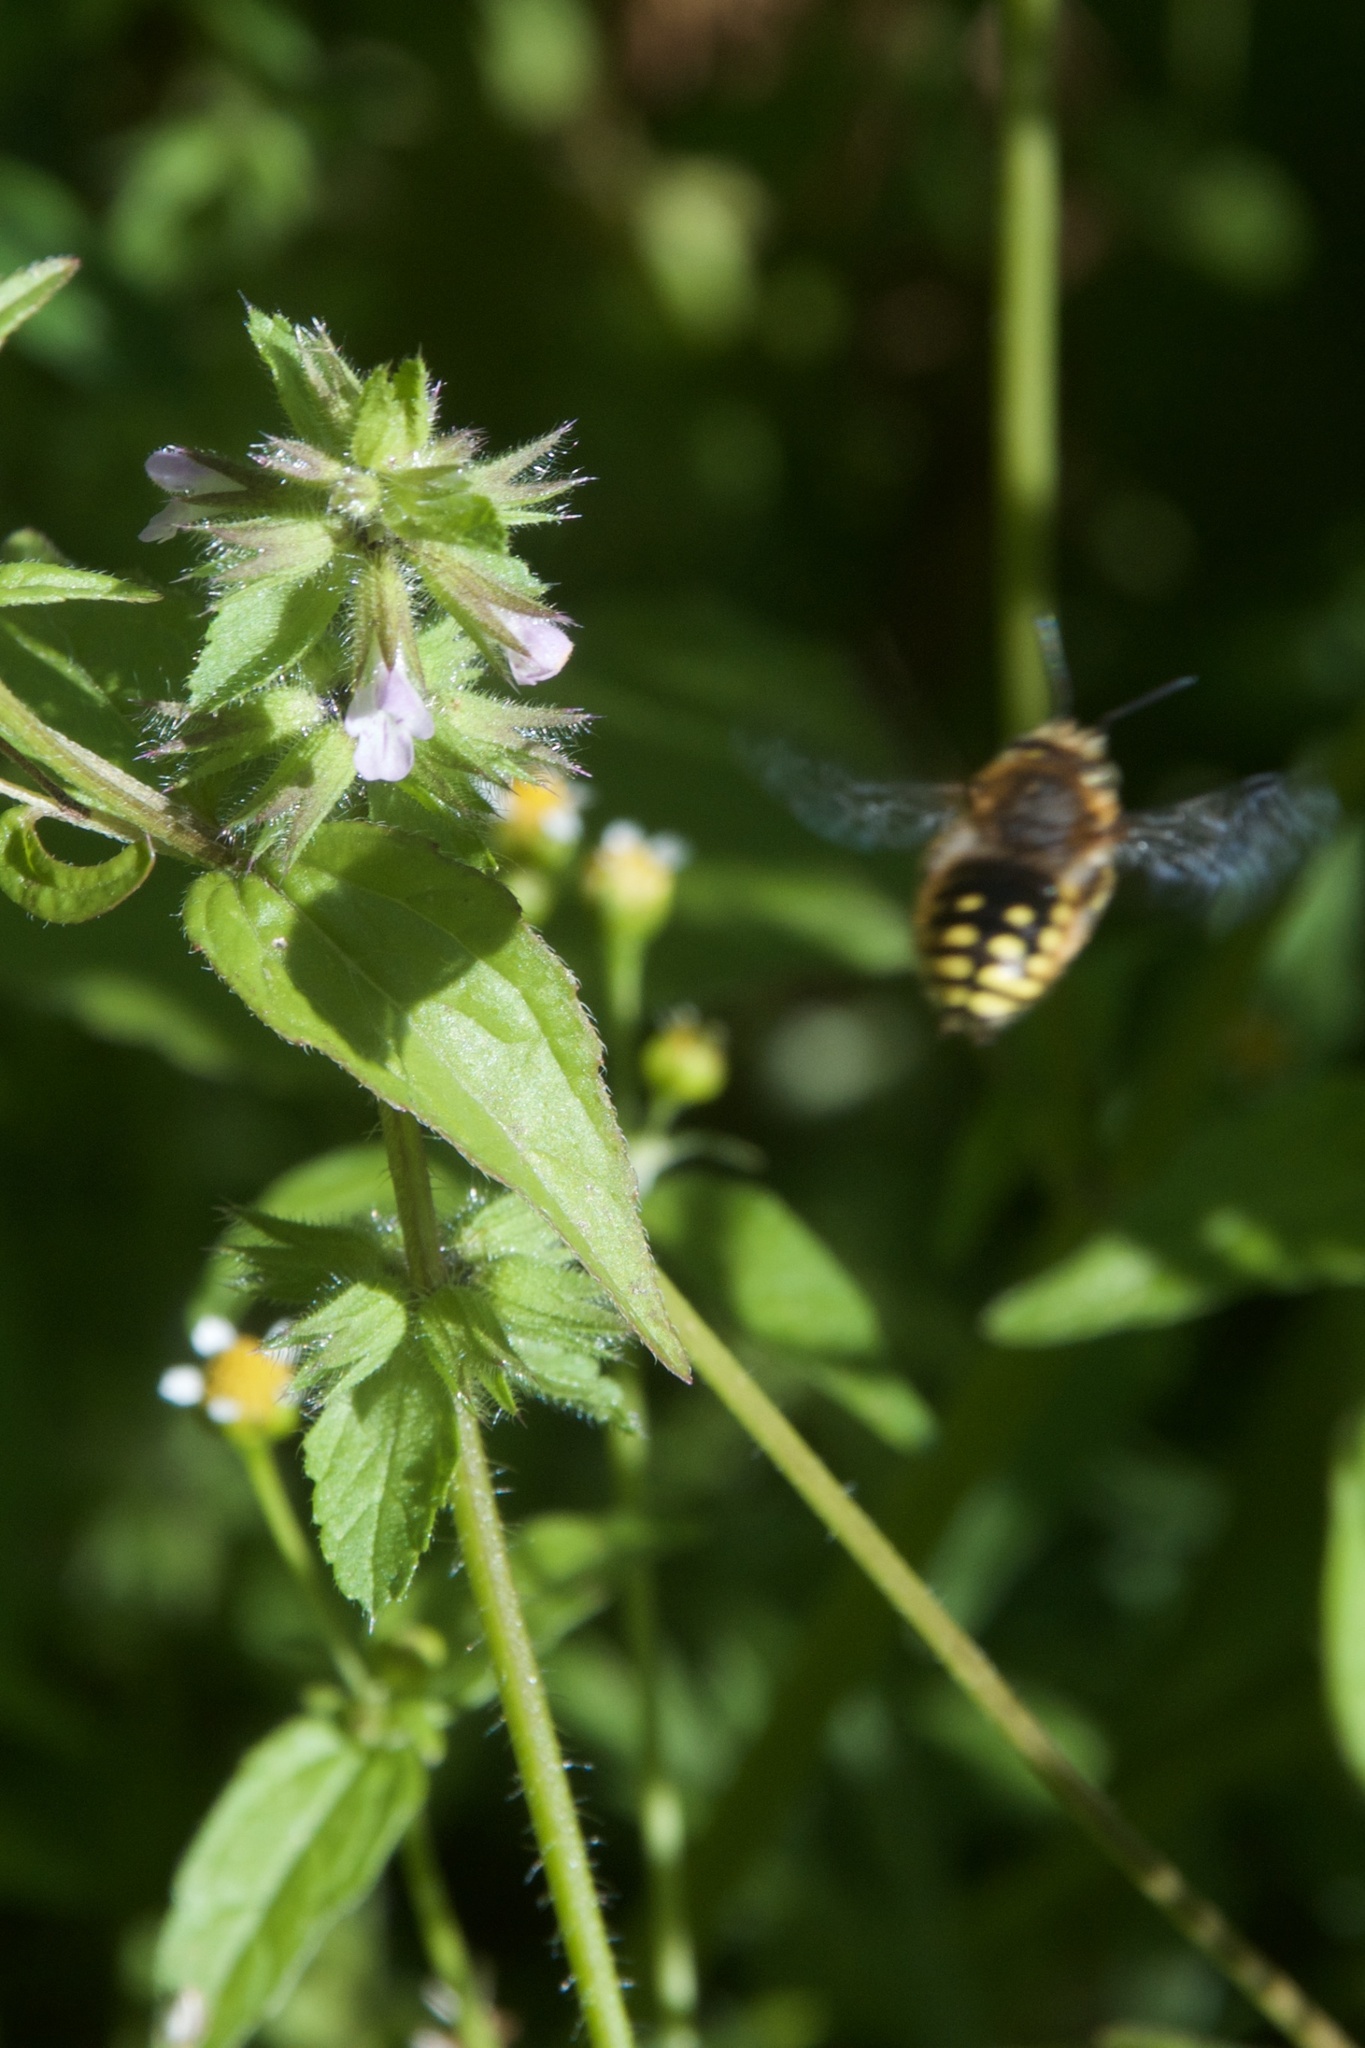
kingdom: Plantae
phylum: Tracheophyta
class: Magnoliopsida
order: Lamiales
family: Lamiaceae
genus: Stachys
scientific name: Stachys arvensis
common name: Field woundwort
